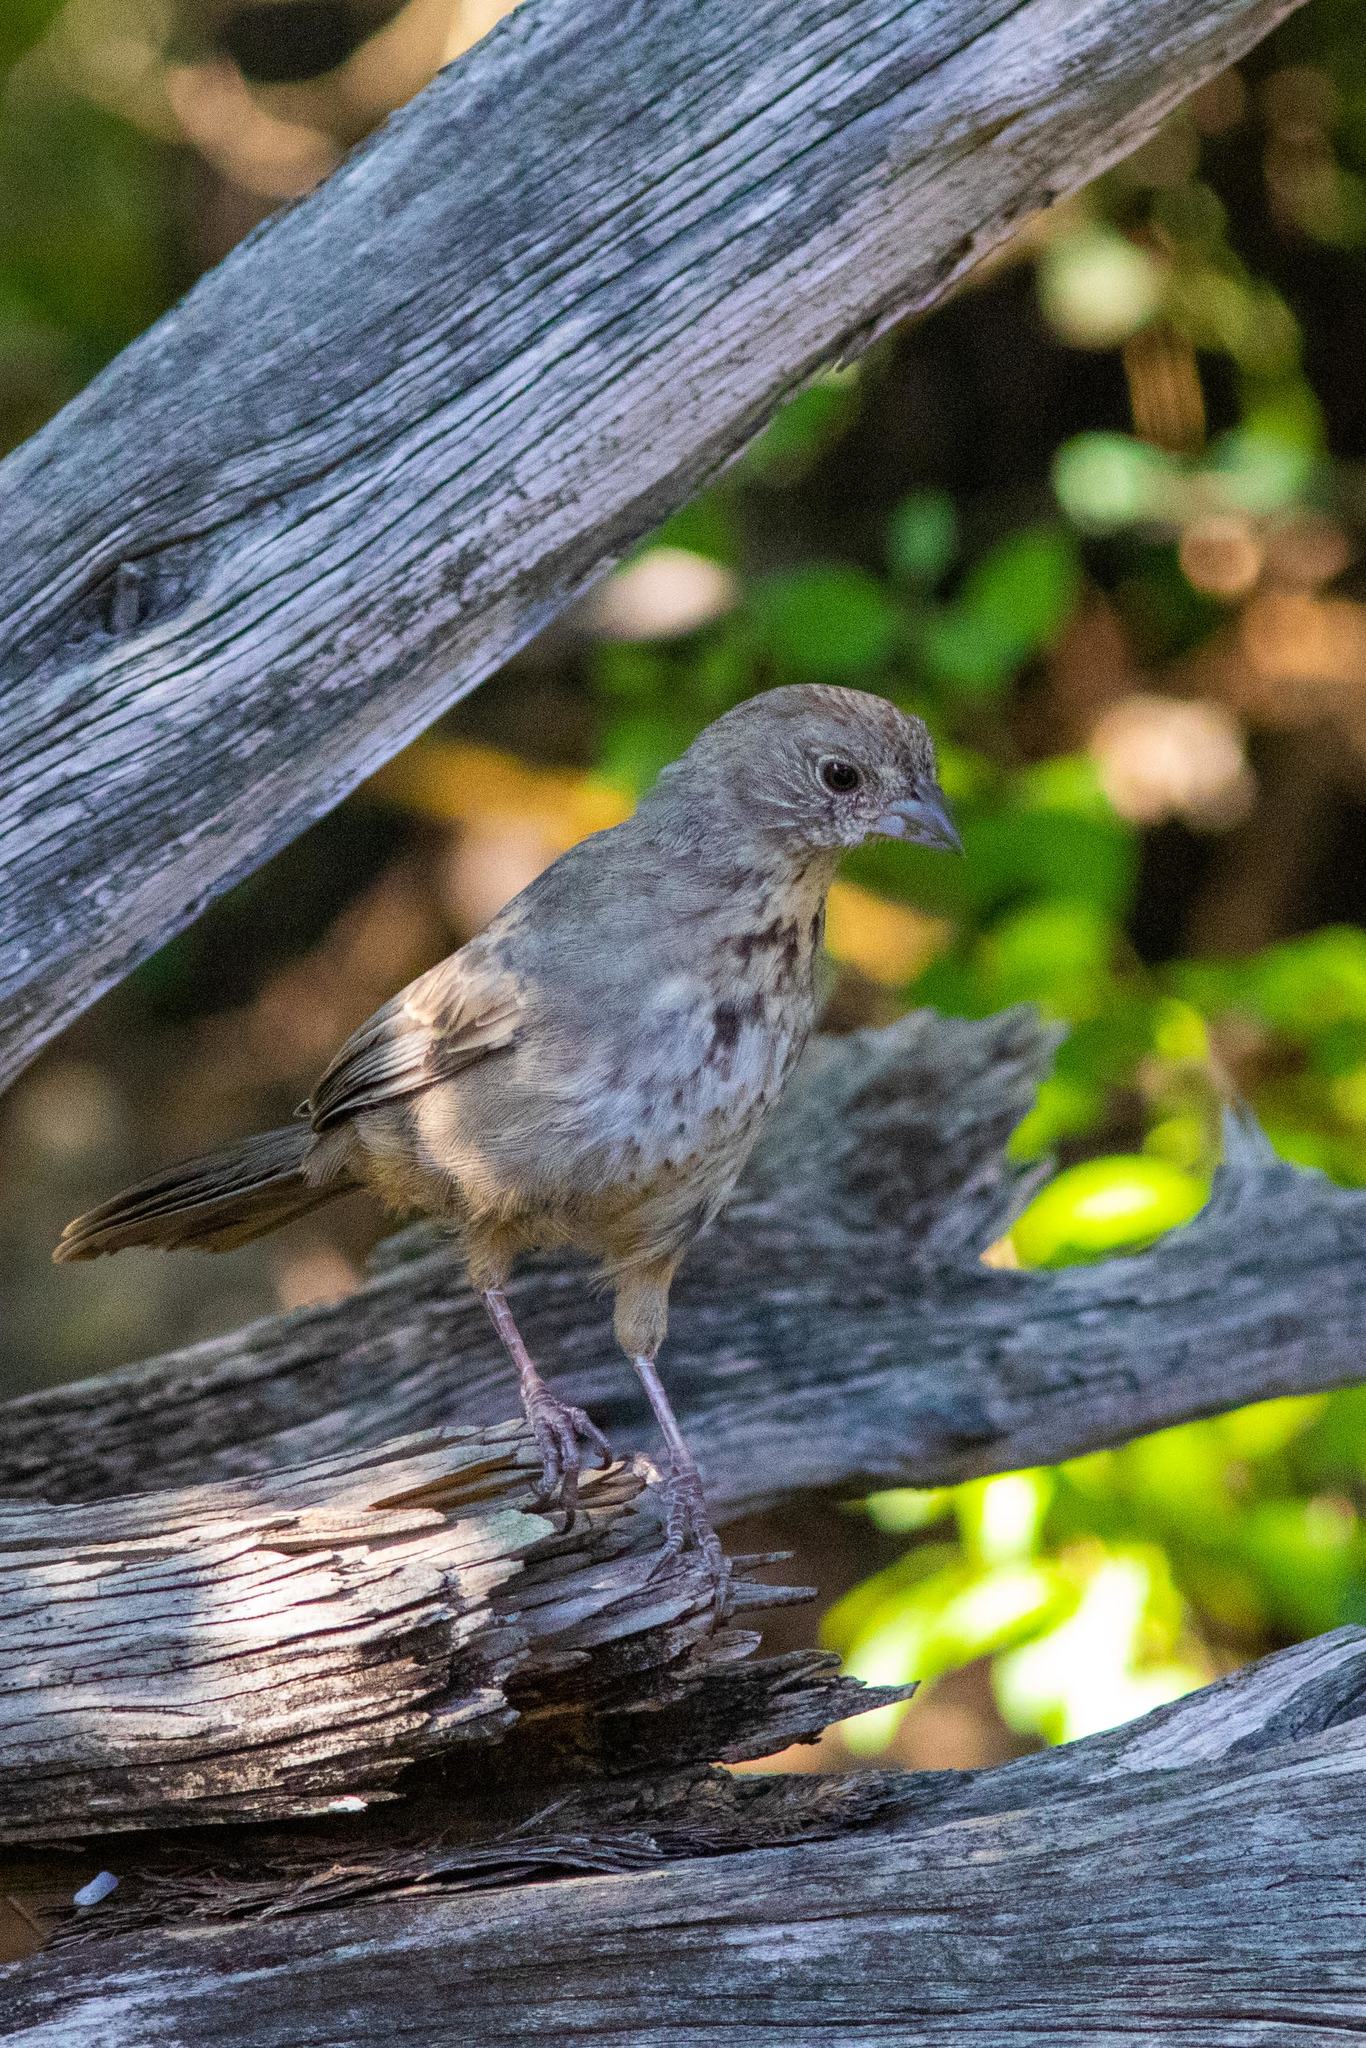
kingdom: Animalia
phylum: Chordata
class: Aves
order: Passeriformes
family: Passerellidae
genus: Melozone
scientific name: Melozone fusca
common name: Canyon towhee
